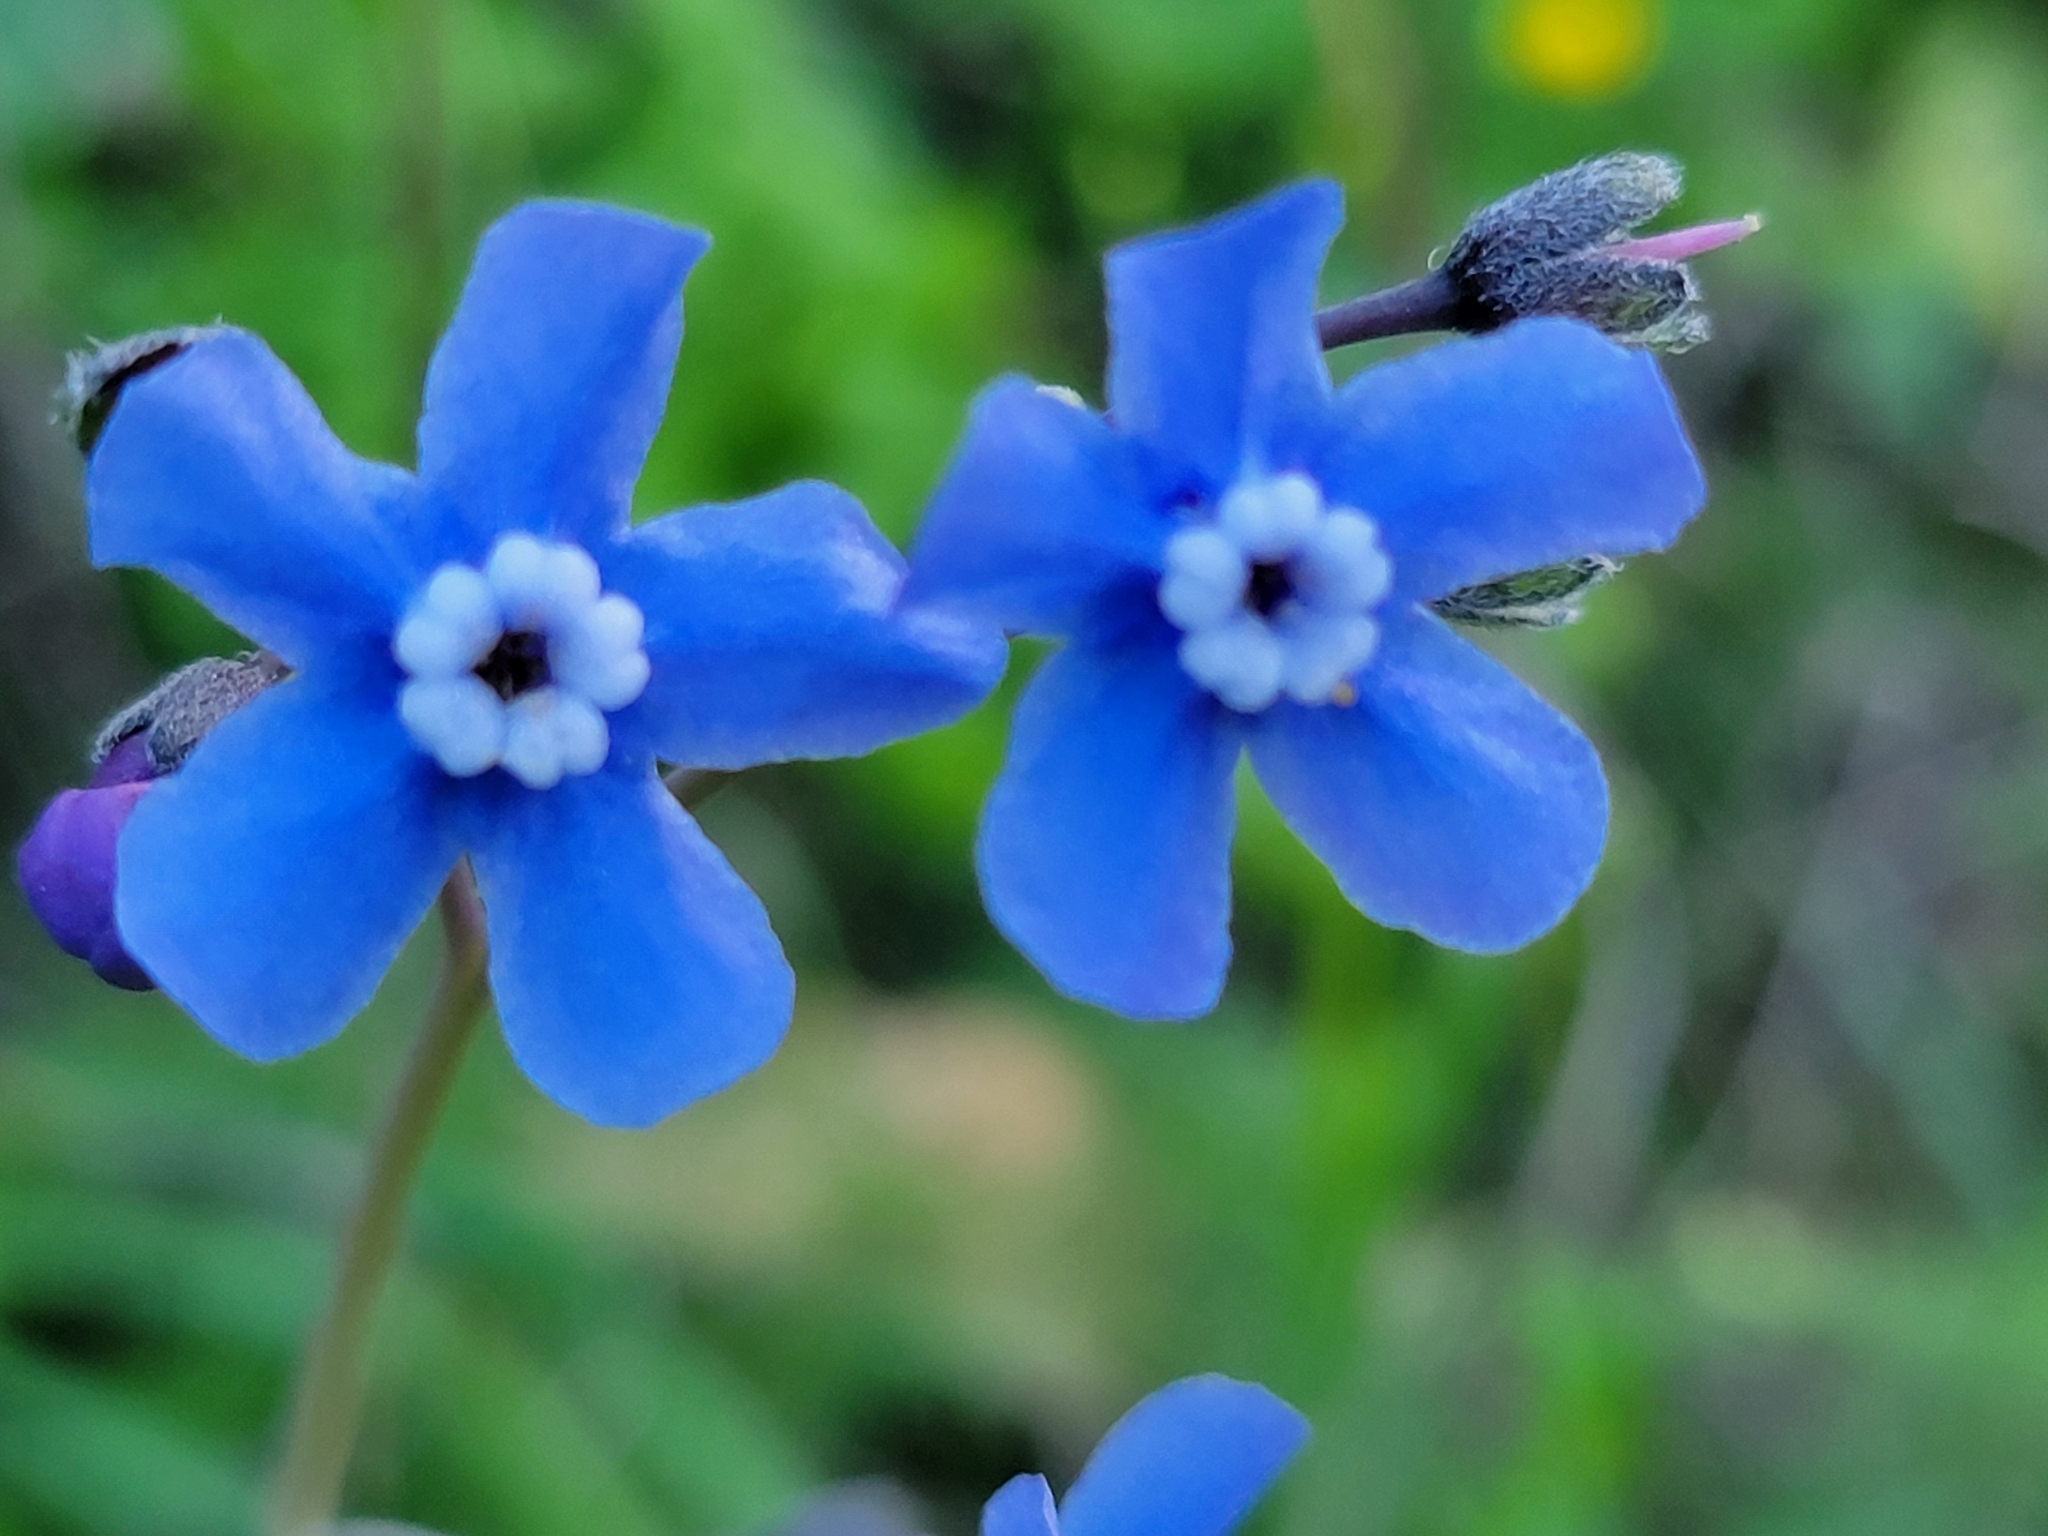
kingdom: Plantae
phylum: Tracheophyta
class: Magnoliopsida
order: Boraginales
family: Boraginaceae
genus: Adelinia
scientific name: Adelinia grande
